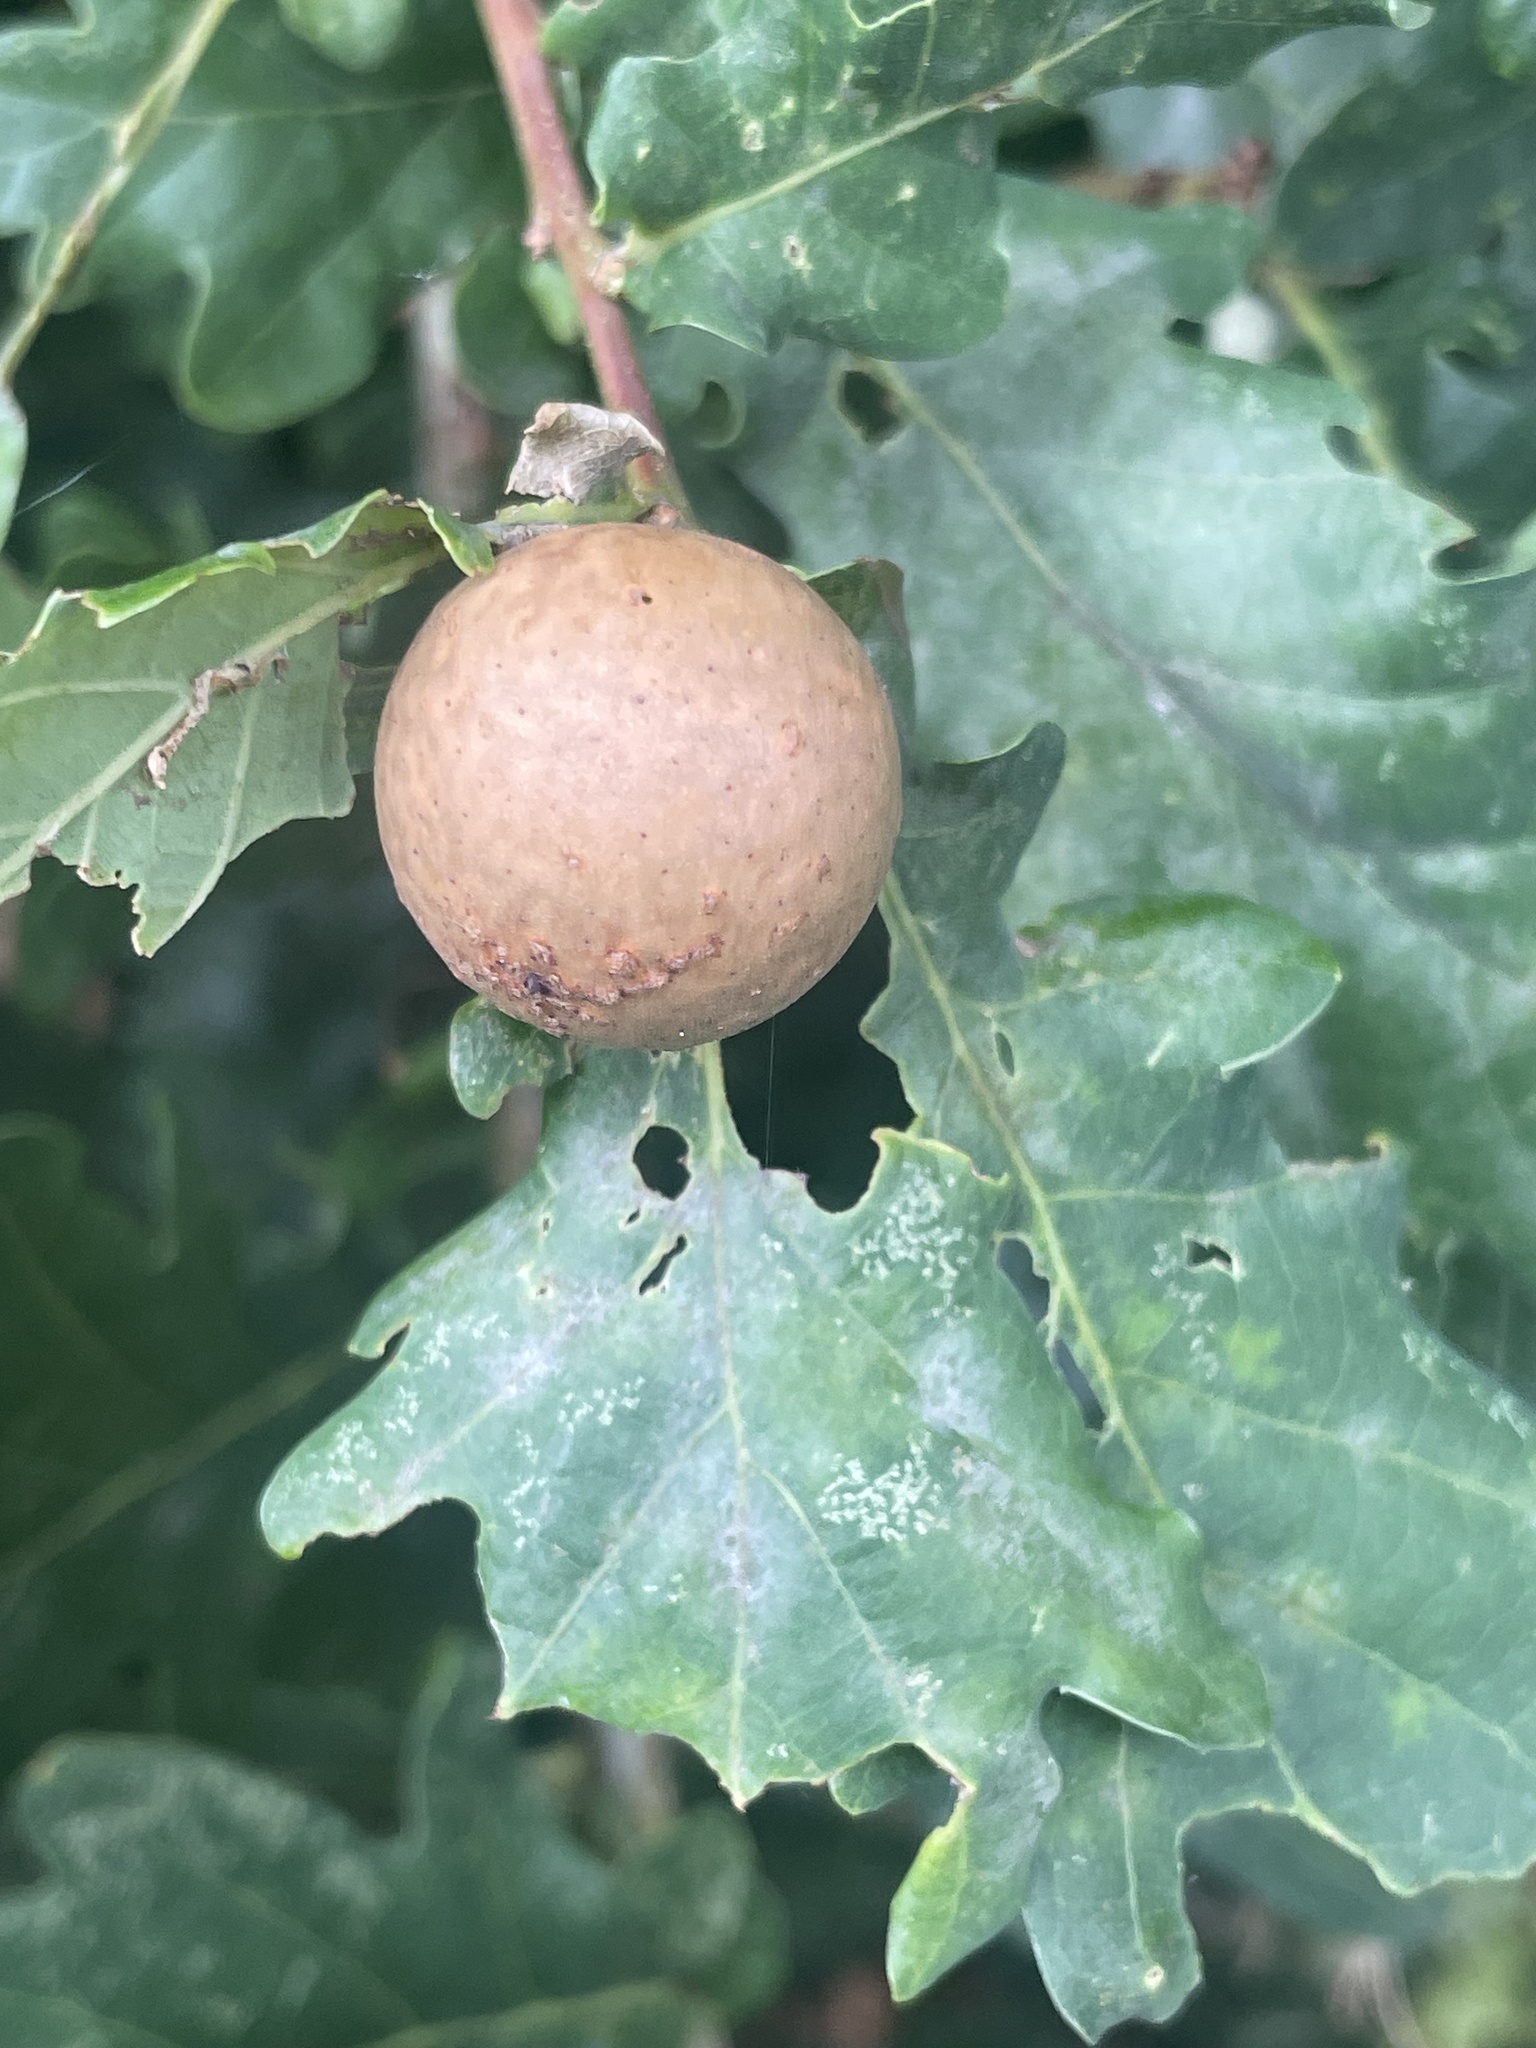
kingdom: Animalia
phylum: Arthropoda
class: Insecta
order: Hymenoptera
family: Cynipidae
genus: Andricus
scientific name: Andricus kollari
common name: Marble gall
